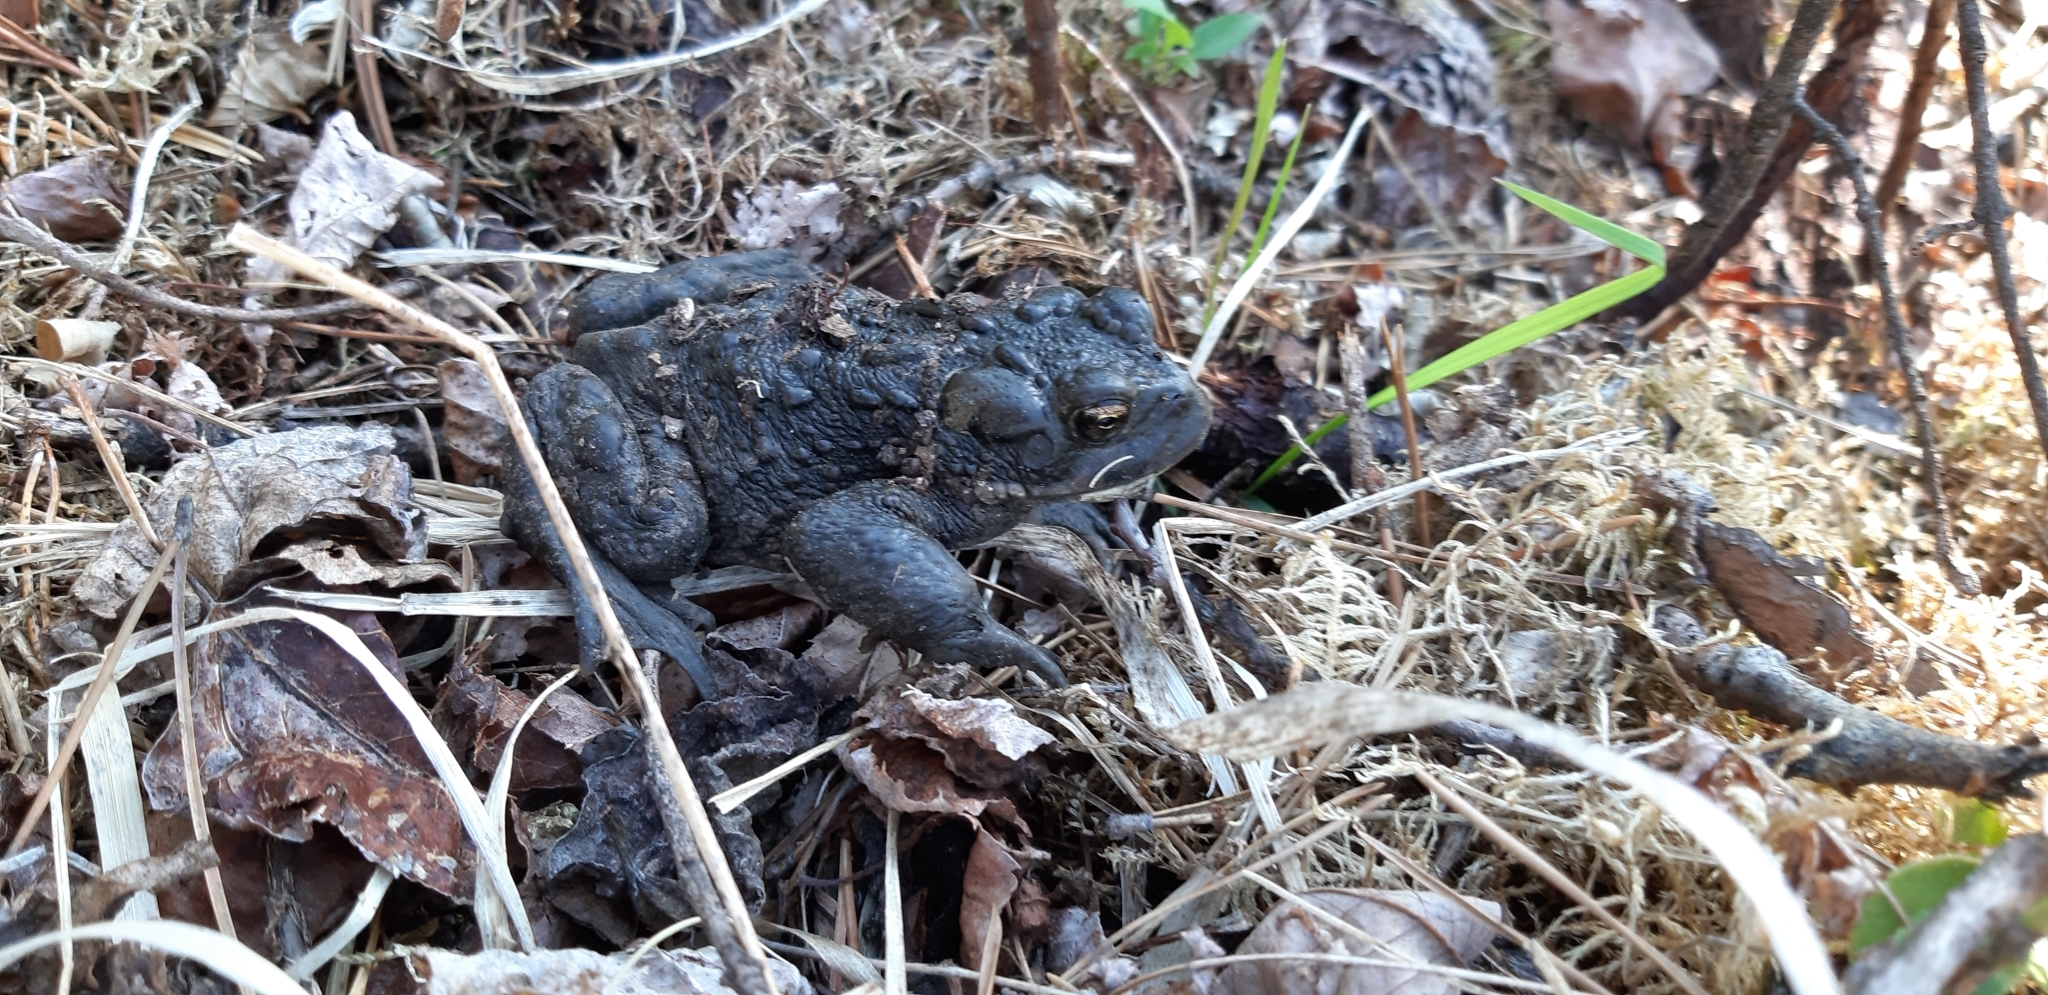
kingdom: Animalia
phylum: Chordata
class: Amphibia
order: Anura
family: Bufonidae
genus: Anaxyrus
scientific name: Anaxyrus boreas
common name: Western toad
